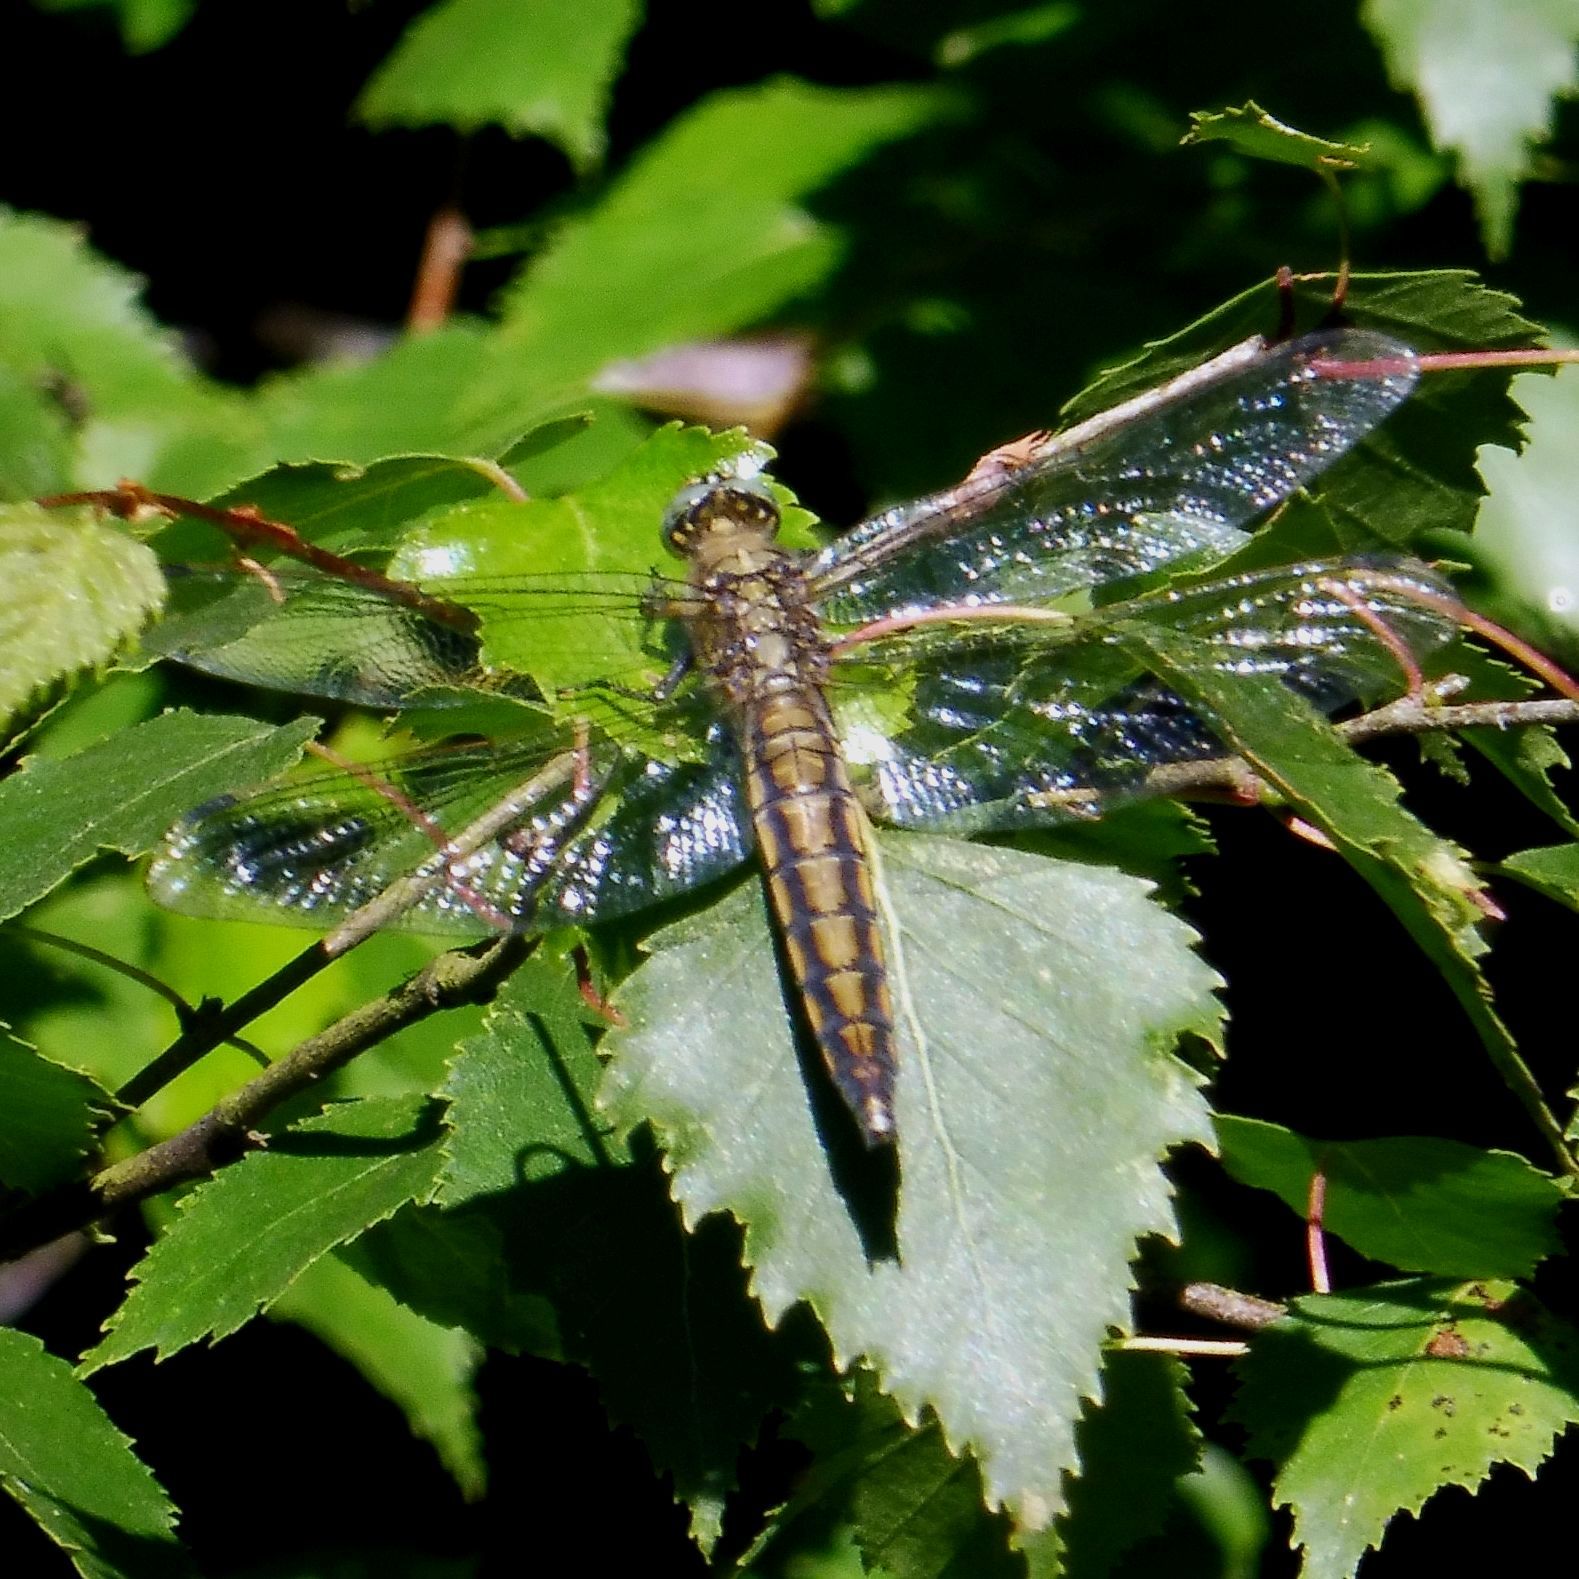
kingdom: Animalia
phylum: Arthropoda
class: Insecta
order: Odonata
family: Libellulidae
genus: Orthetrum
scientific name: Orthetrum cancellatum
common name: Black-tailed skimmer
